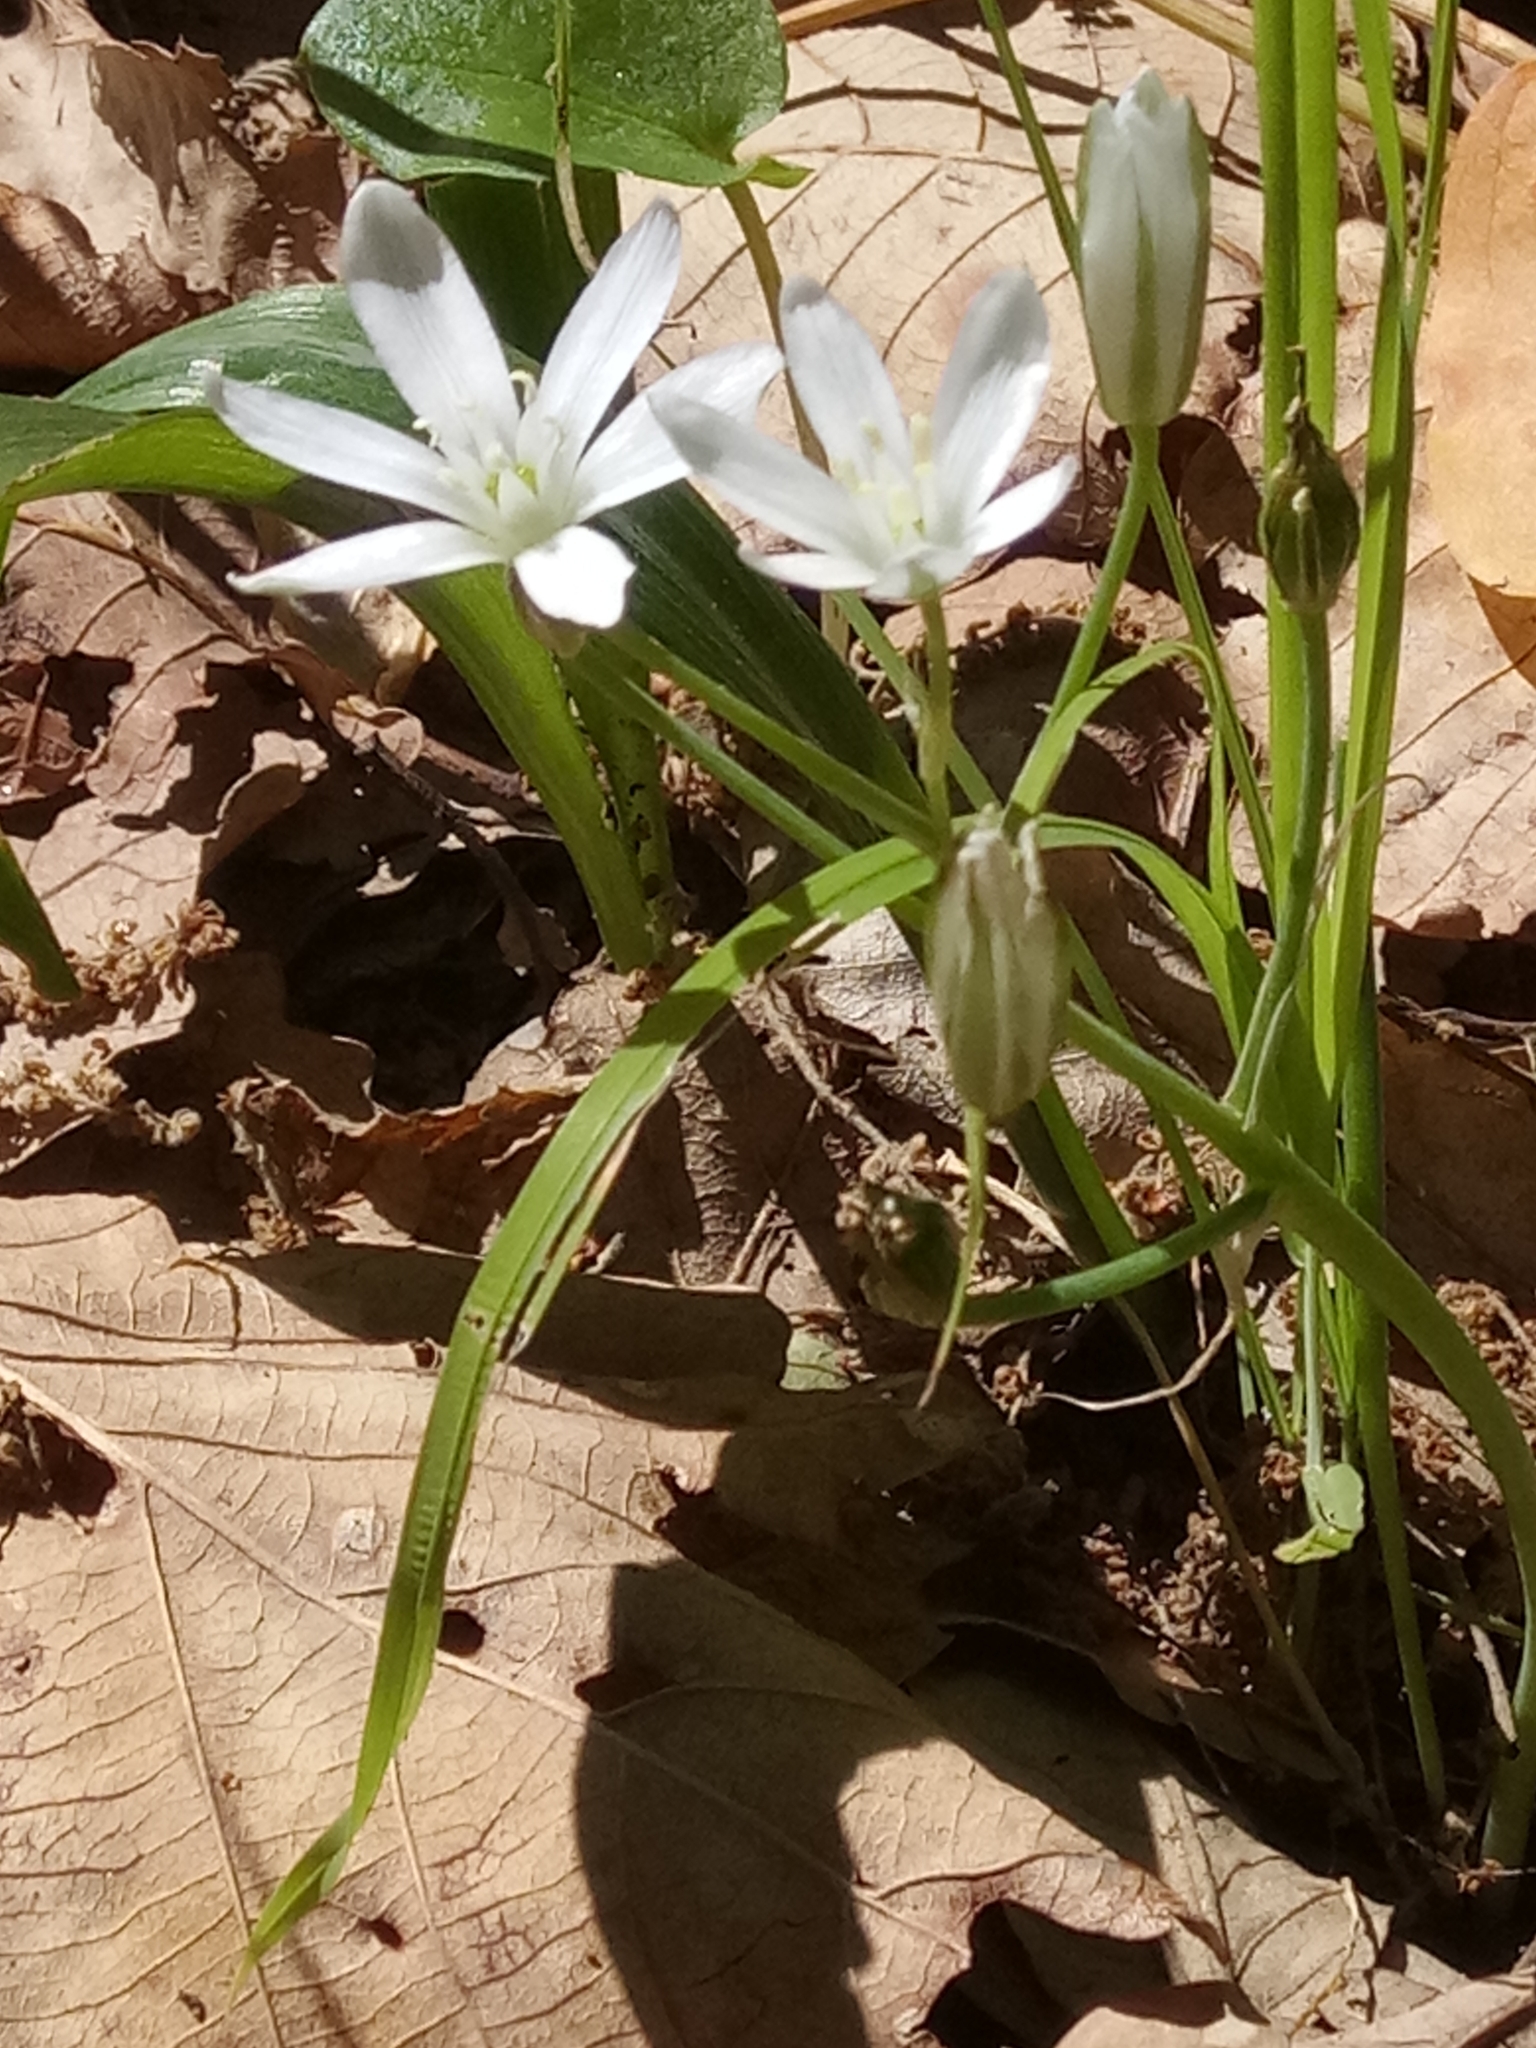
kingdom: Plantae
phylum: Tracheophyta
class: Liliopsida
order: Asparagales
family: Asparagaceae
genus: Ornithogalum
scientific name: Ornithogalum baeticum
